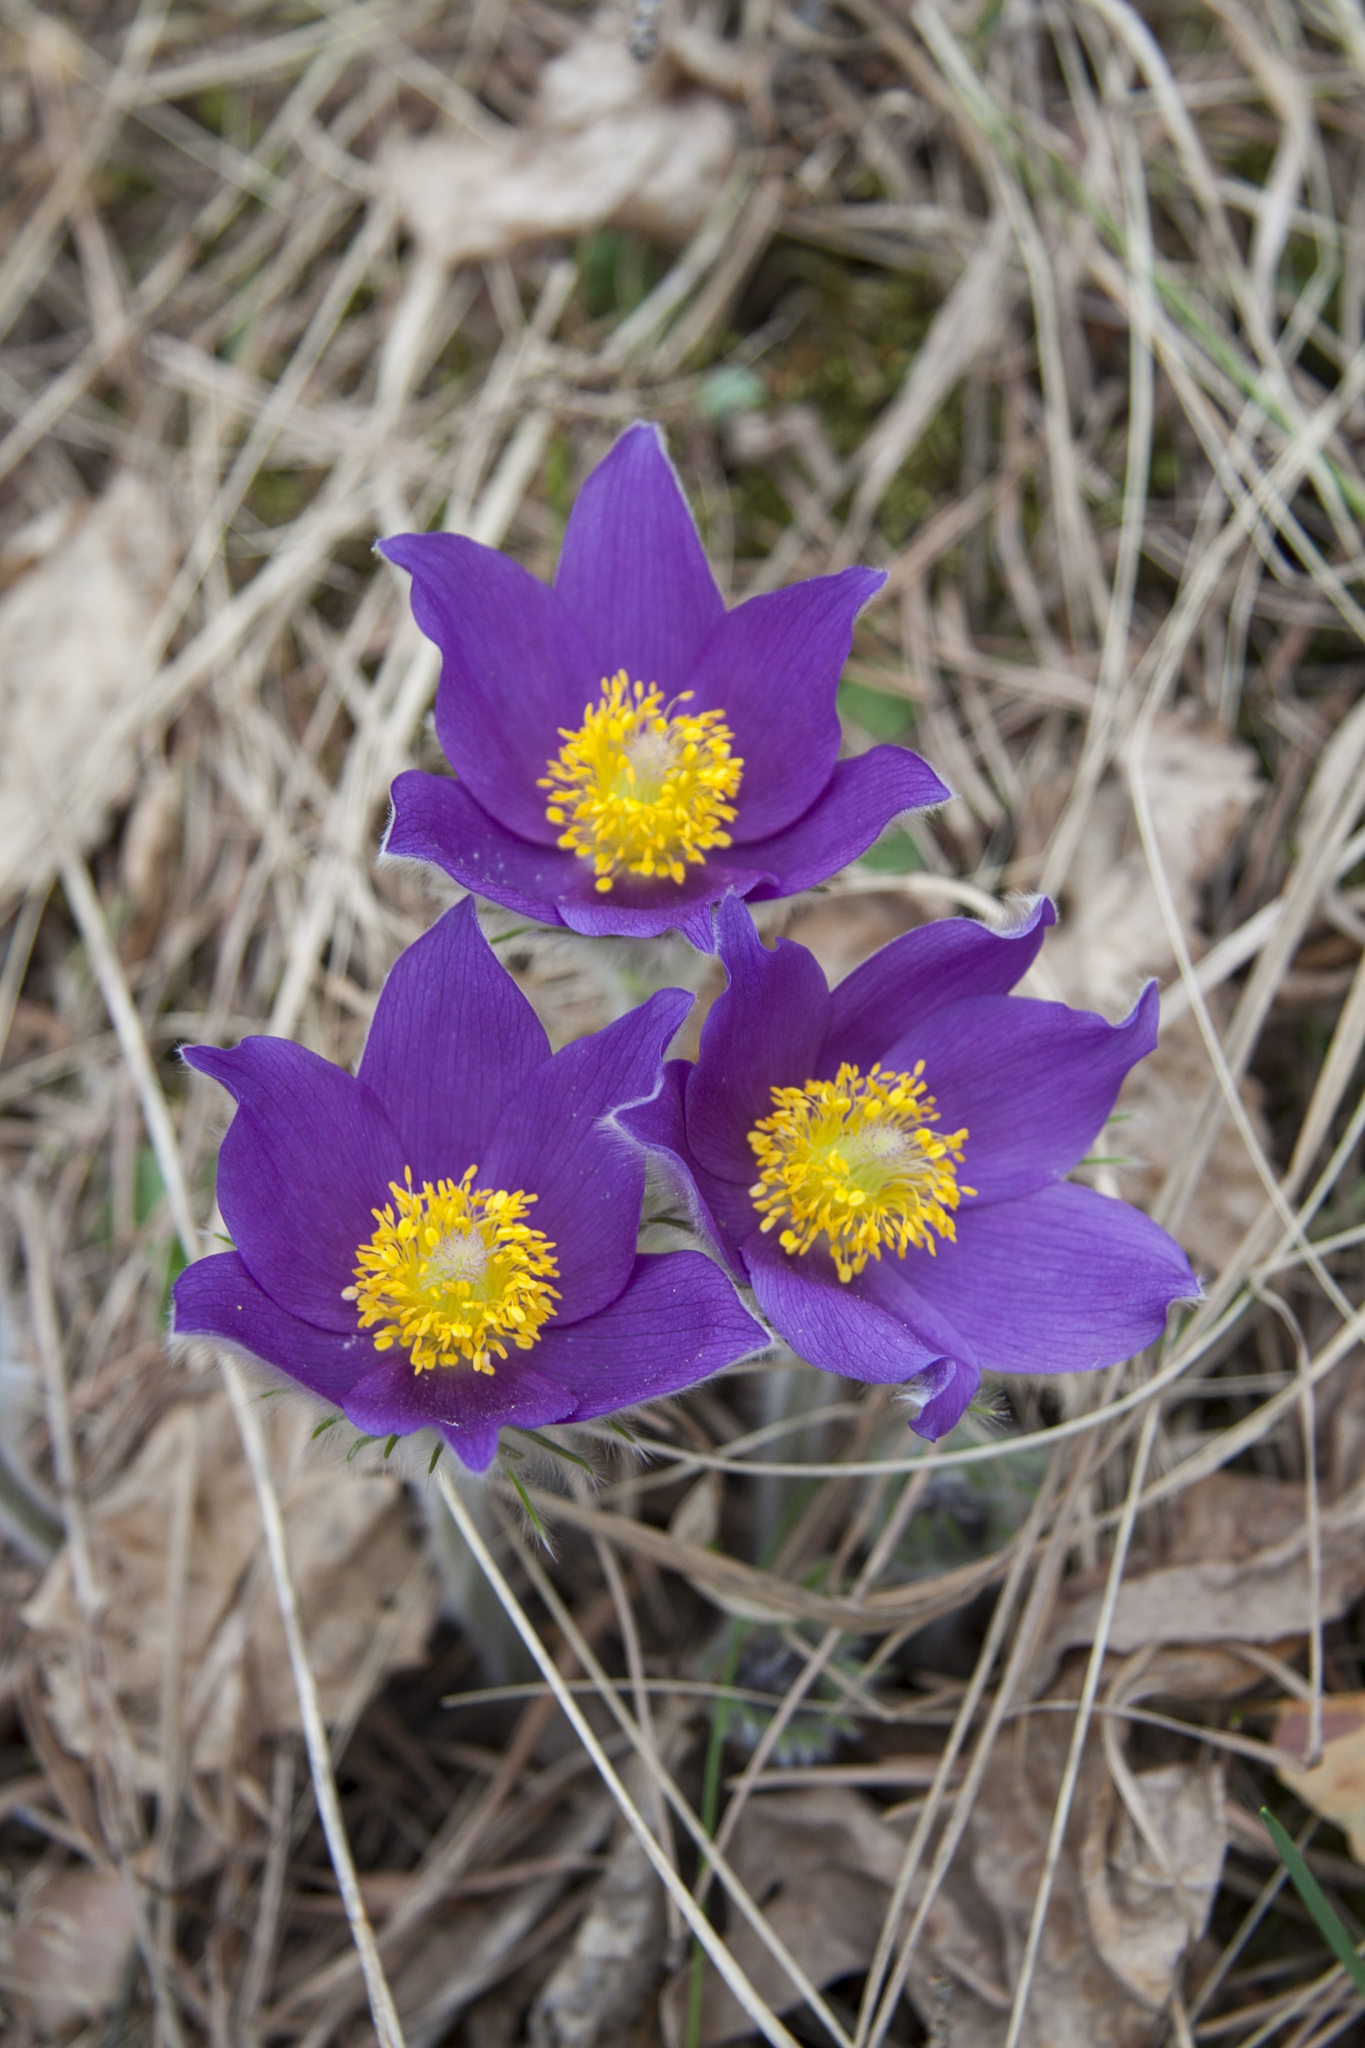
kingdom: Plantae
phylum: Tracheophyta
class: Magnoliopsida
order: Ranunculales
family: Ranunculaceae
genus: Pulsatilla
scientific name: Pulsatilla patens
